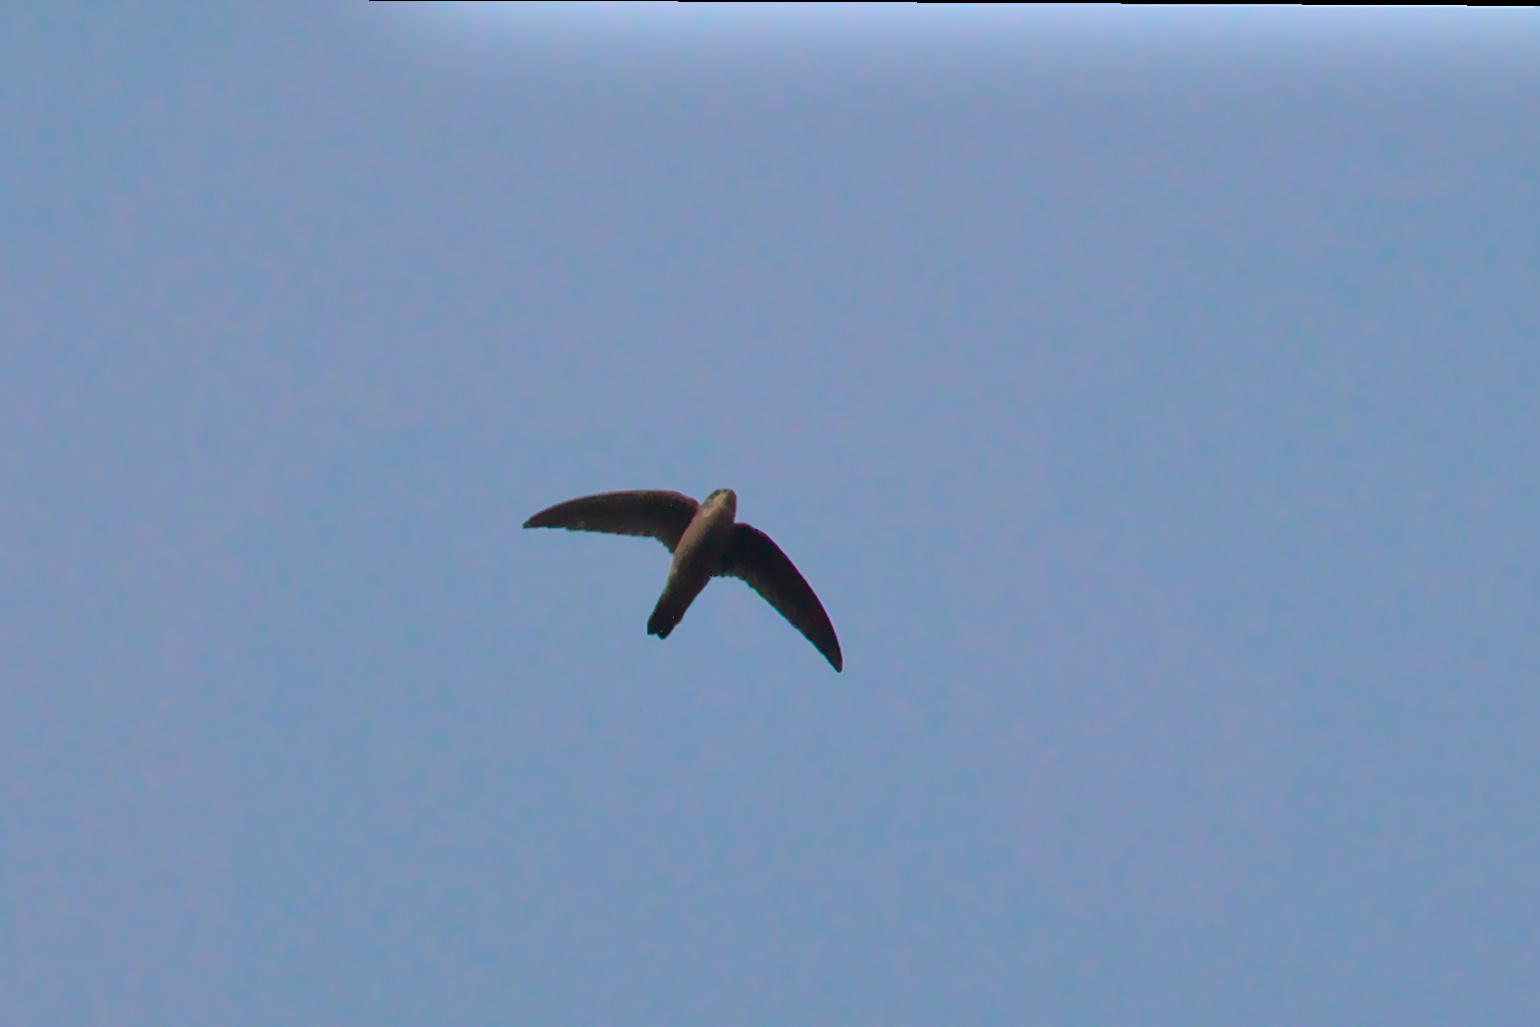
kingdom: Animalia
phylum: Chordata
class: Aves
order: Apodiformes
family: Apodidae
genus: Cypsiurus
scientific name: Cypsiurus balasiensis
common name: Asian palm swift
